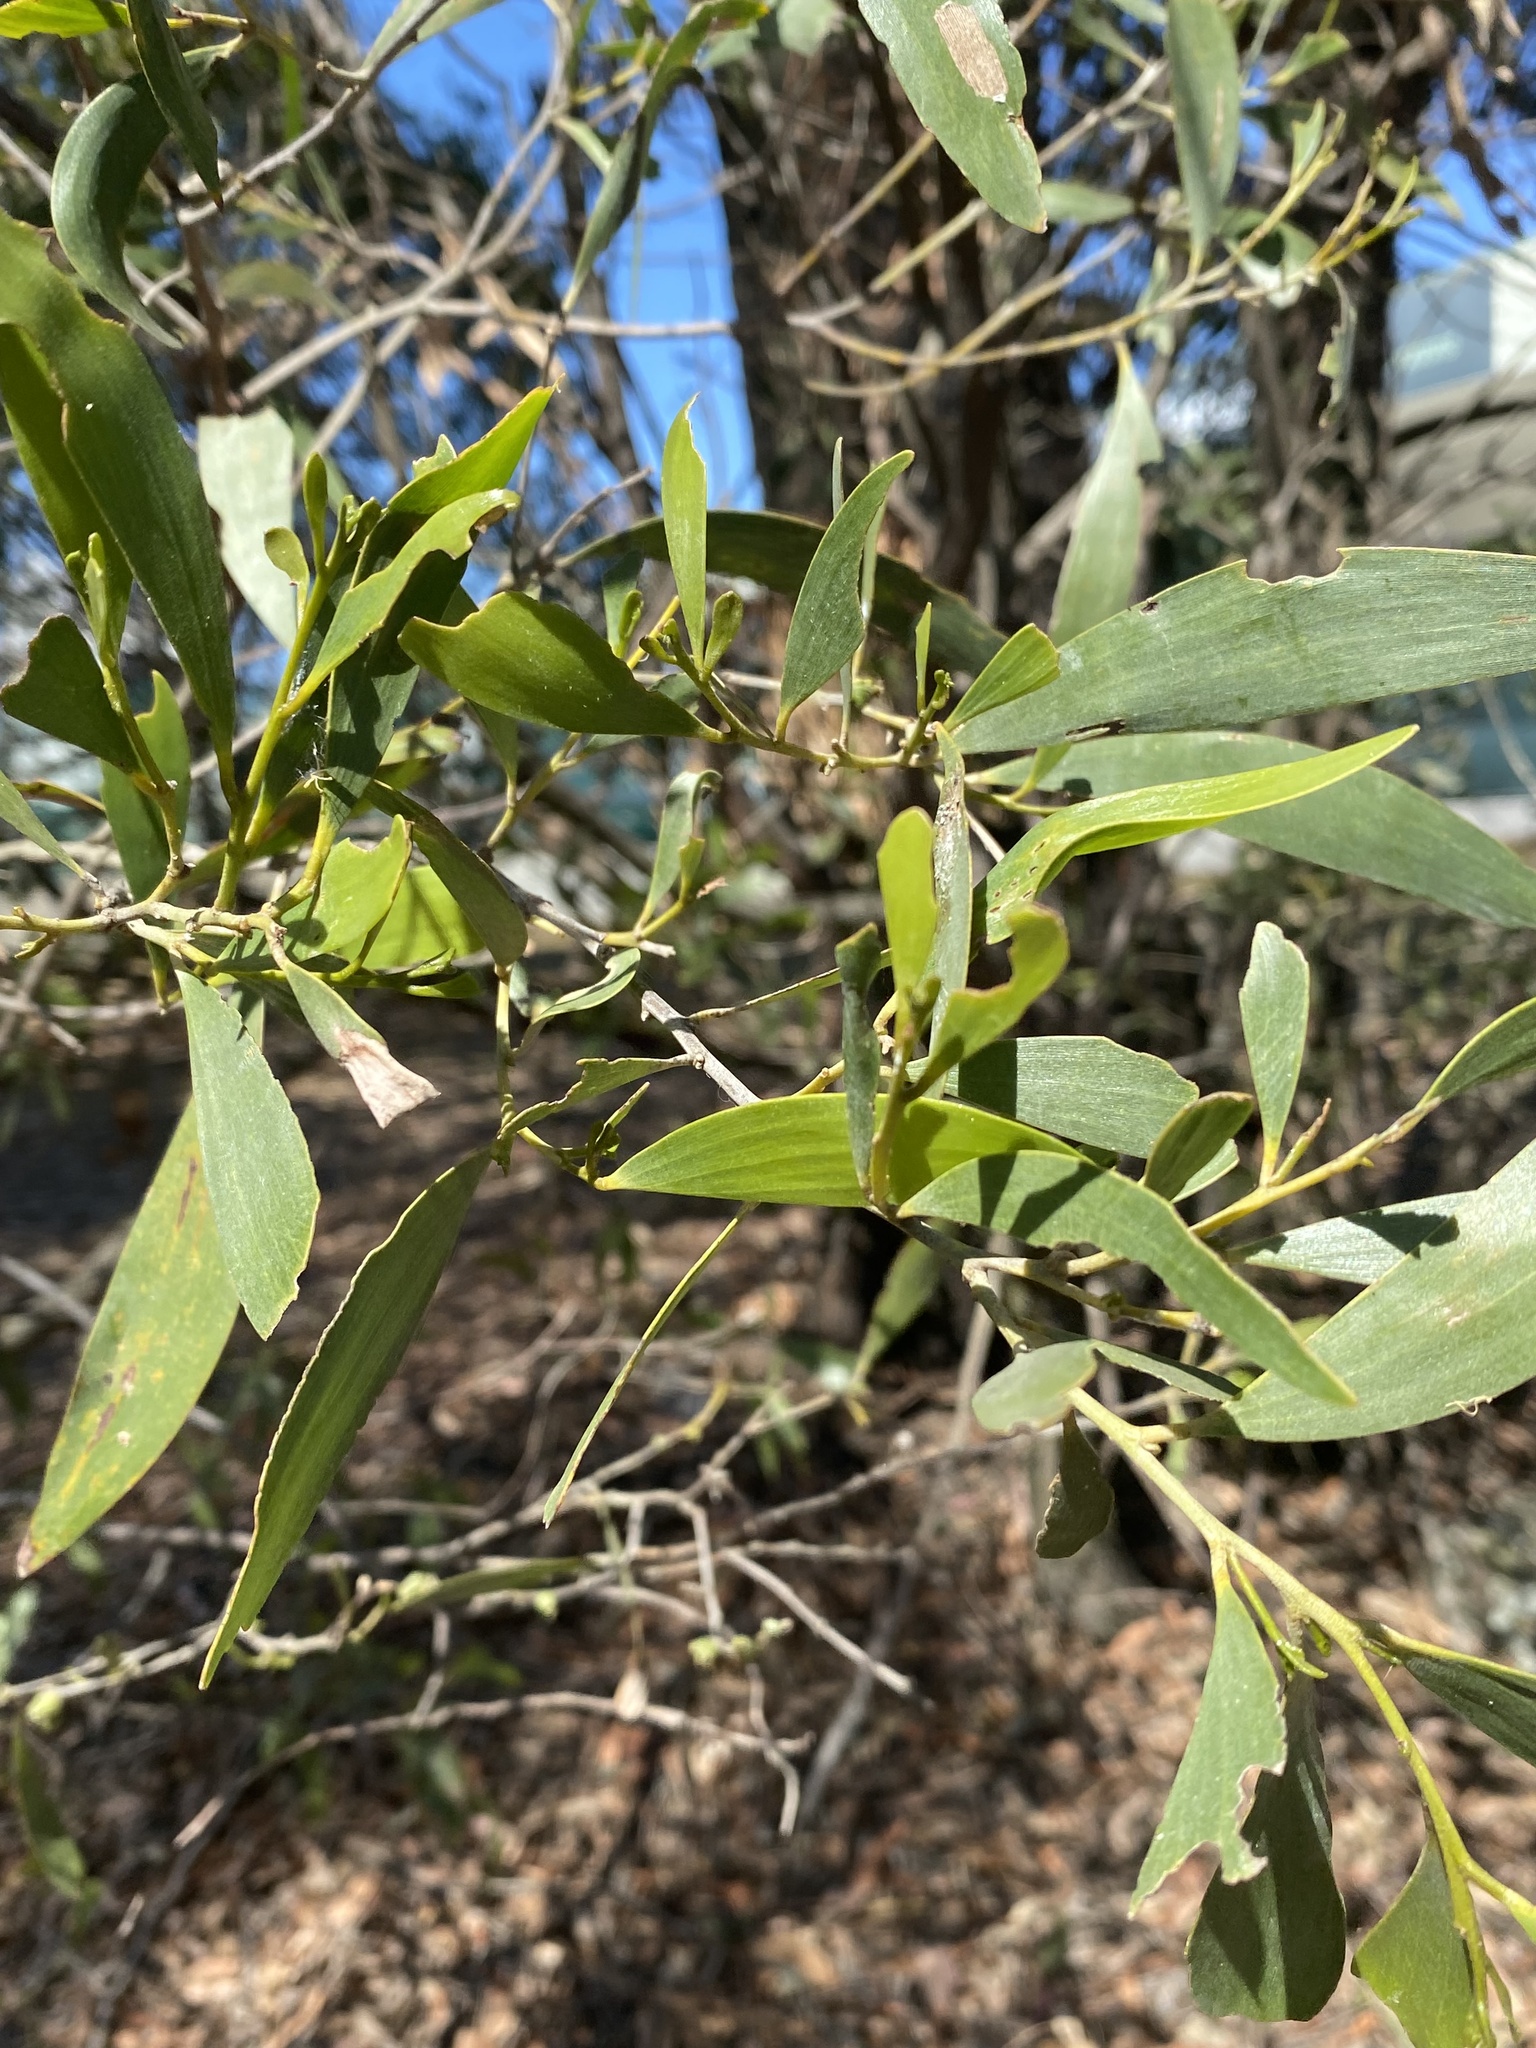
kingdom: Plantae
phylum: Tracheophyta
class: Magnoliopsida
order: Fabales
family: Fabaceae
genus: Acacia
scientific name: Acacia disparrima
